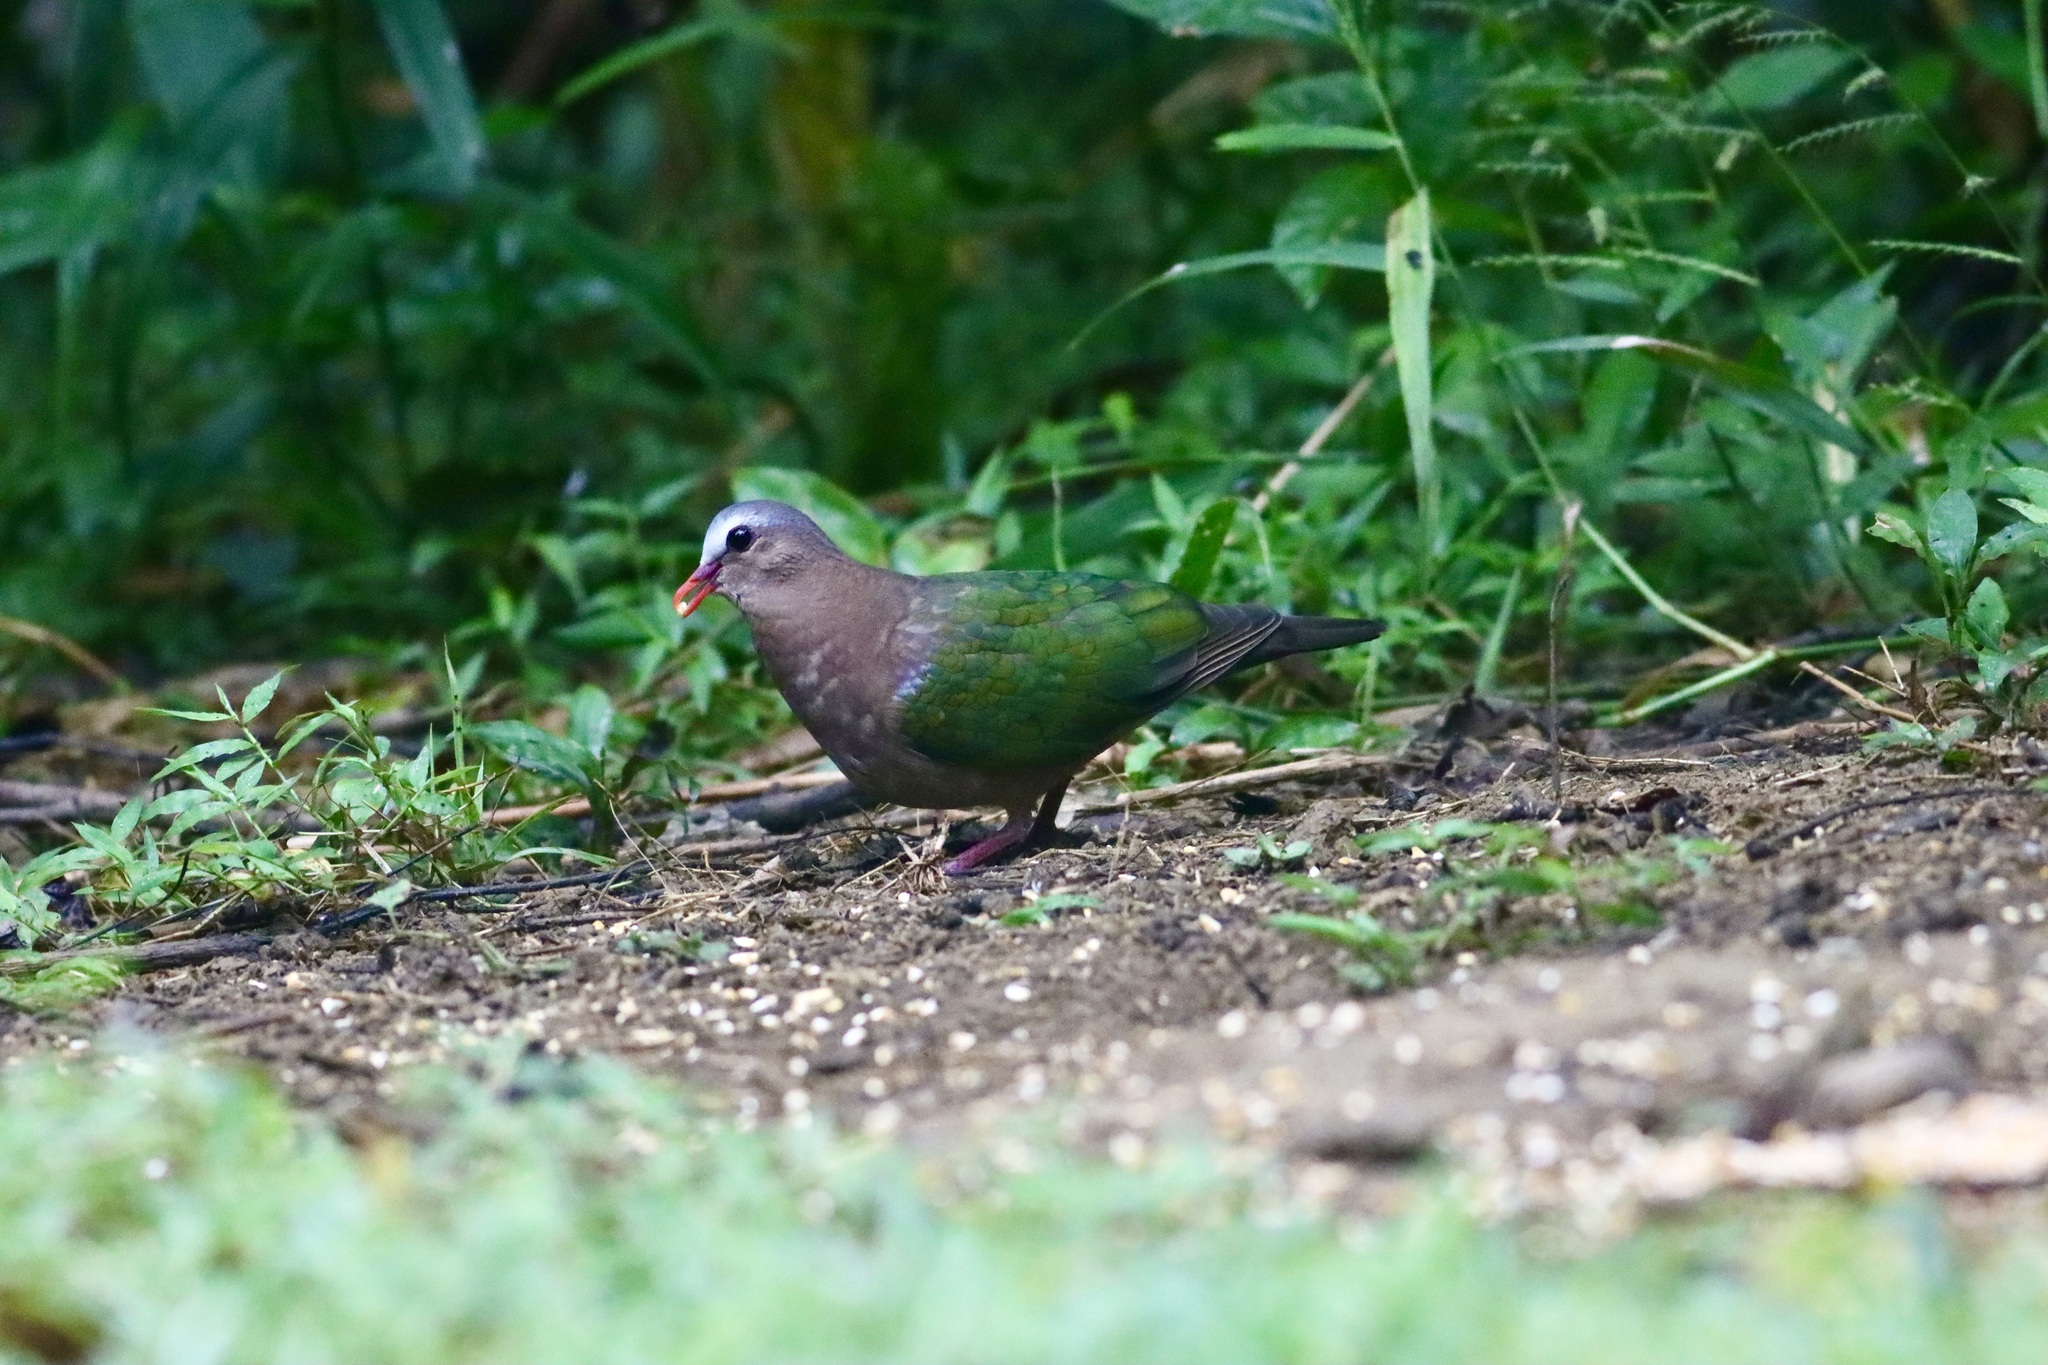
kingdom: Animalia
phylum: Chordata
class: Aves
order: Columbiformes
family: Columbidae
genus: Chalcophaps
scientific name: Chalcophaps indica
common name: Common emerald dove
